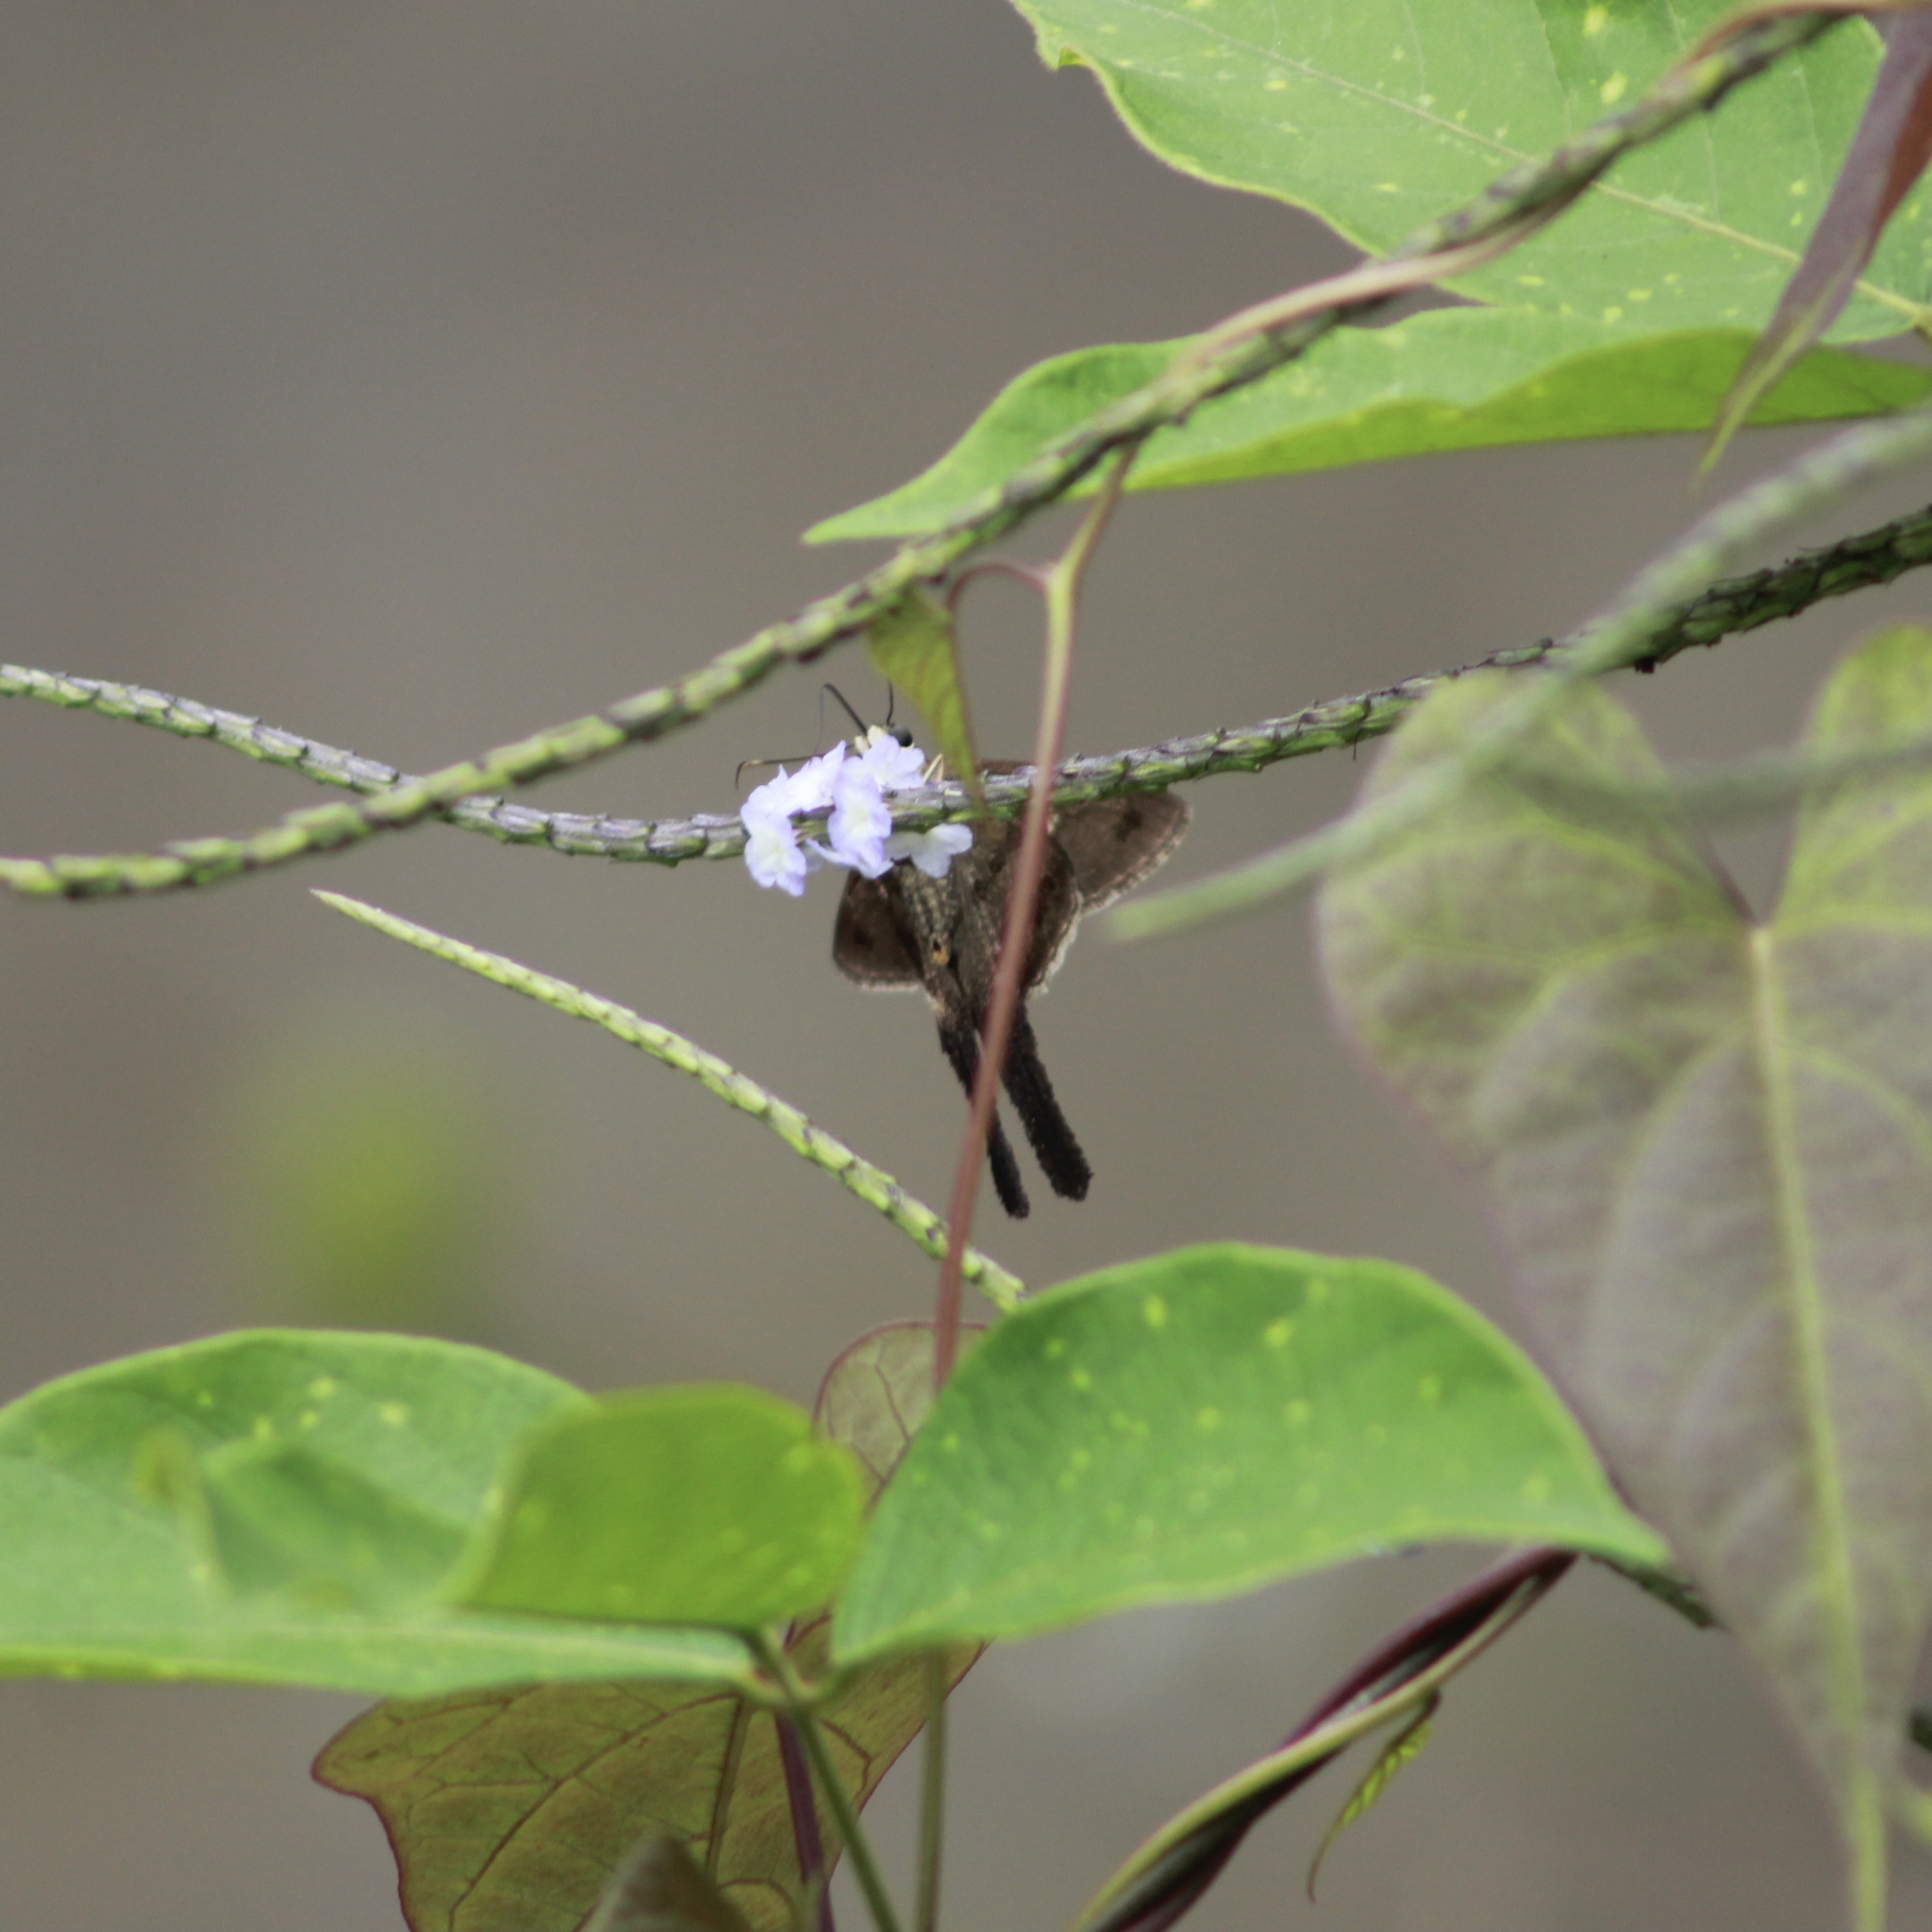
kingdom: Animalia
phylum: Arthropoda
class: Insecta
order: Lepidoptera
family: Hesperiidae
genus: Urbanus
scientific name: Urbanus simplicius
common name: Plain longtail
